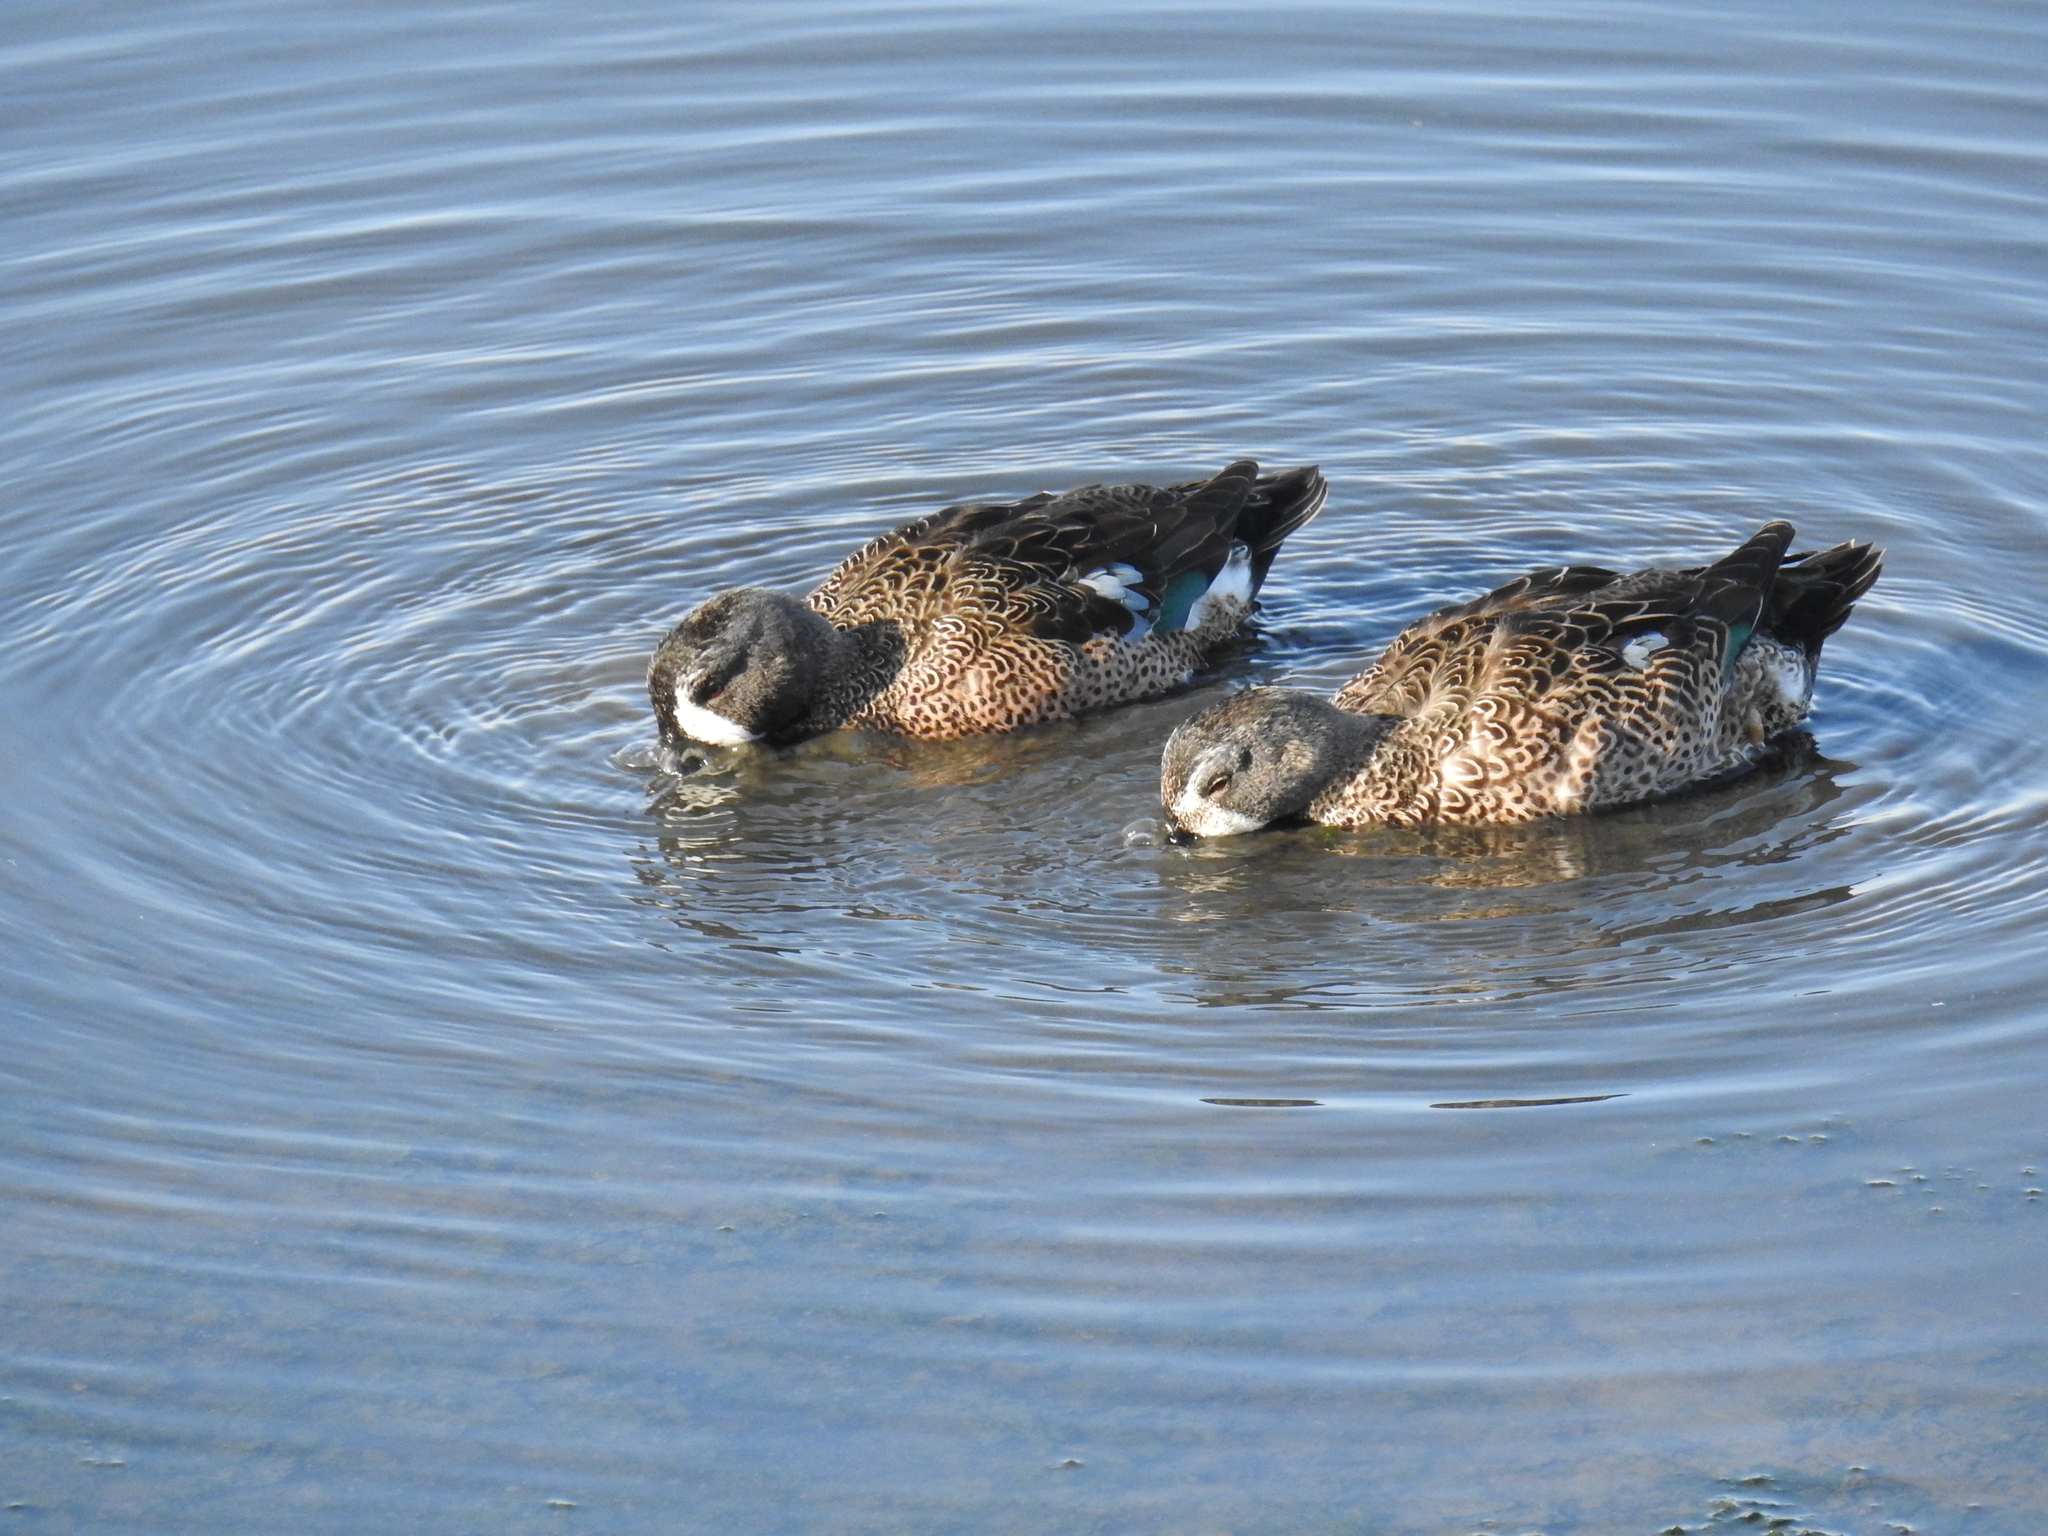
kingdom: Animalia
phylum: Chordata
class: Aves
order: Anseriformes
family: Anatidae
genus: Spatula
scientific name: Spatula discors
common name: Blue-winged teal
